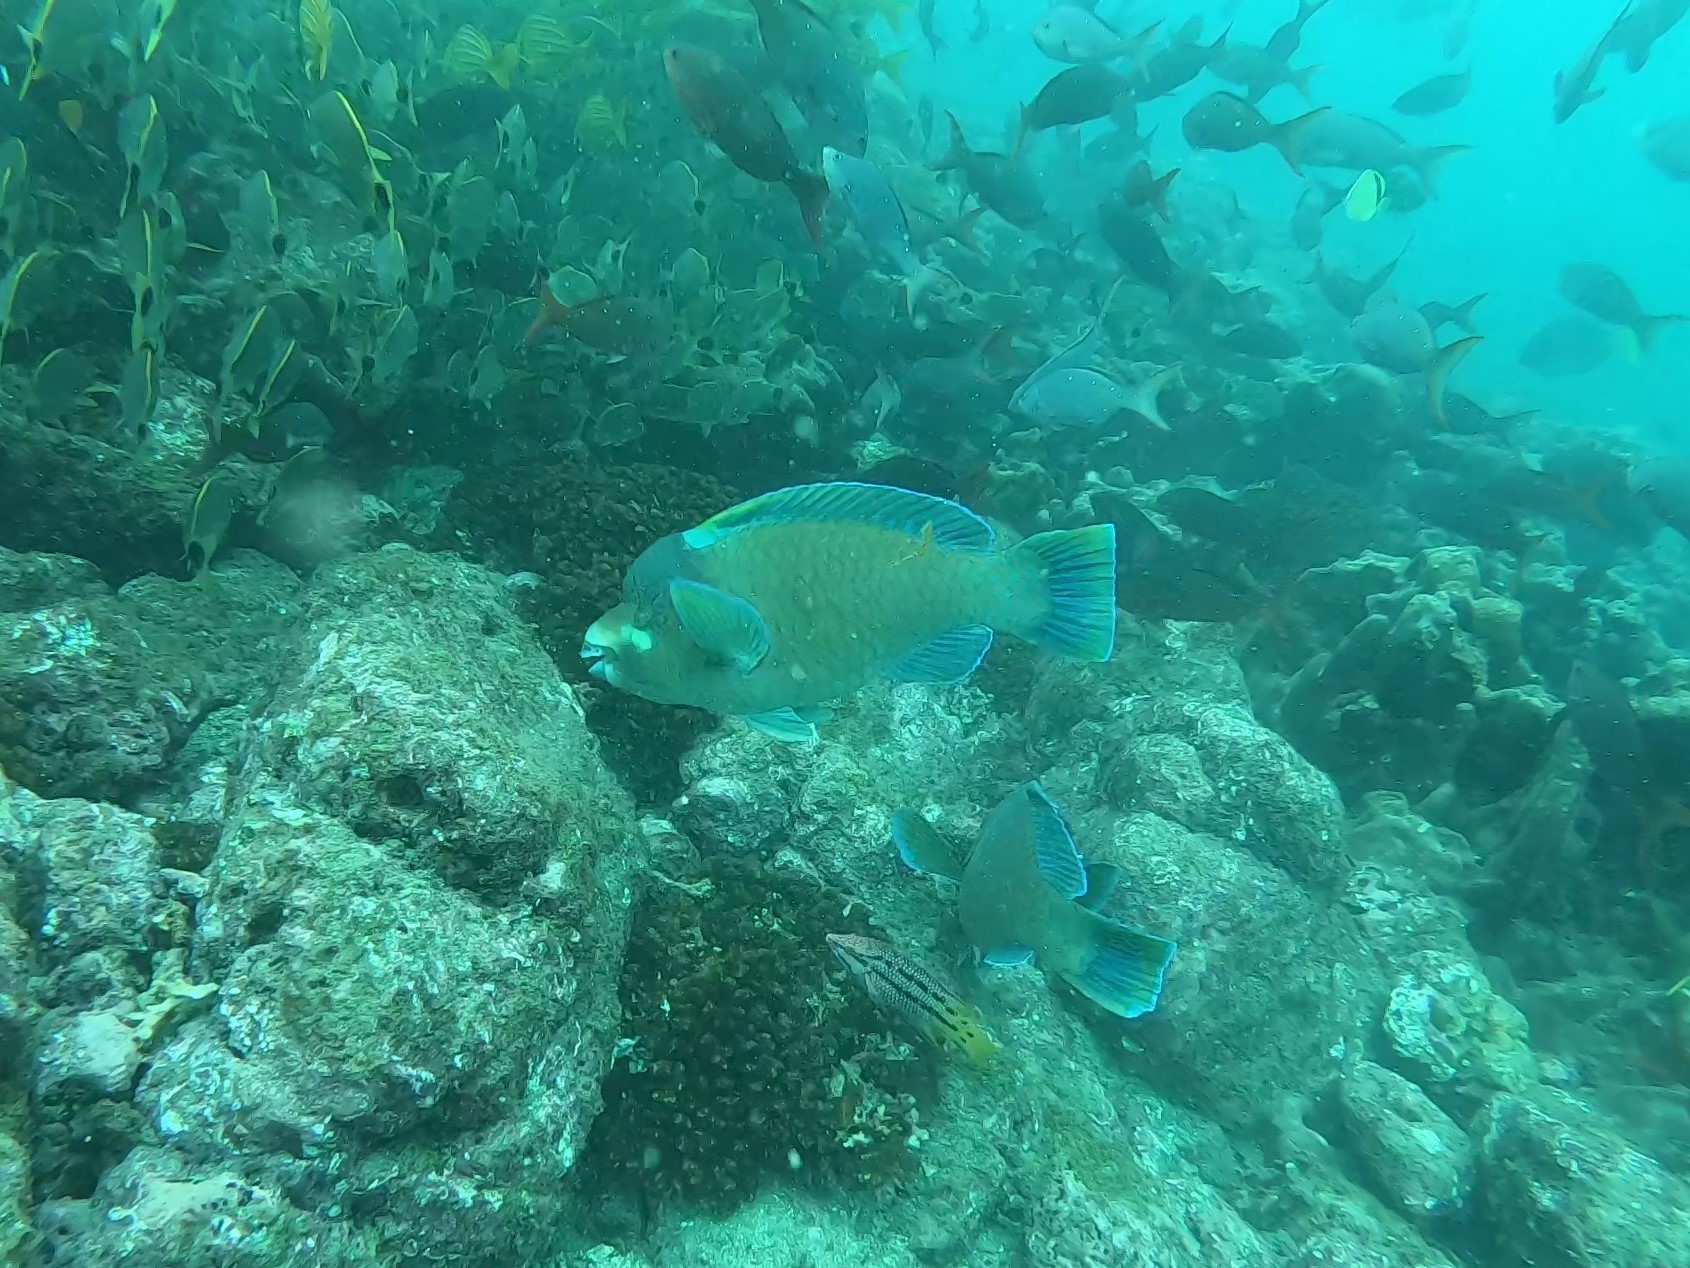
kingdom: Animalia
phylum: Chordata
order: Perciformes
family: Scaridae
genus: Scarus
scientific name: Scarus perrico
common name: Bumphead parrotfish
